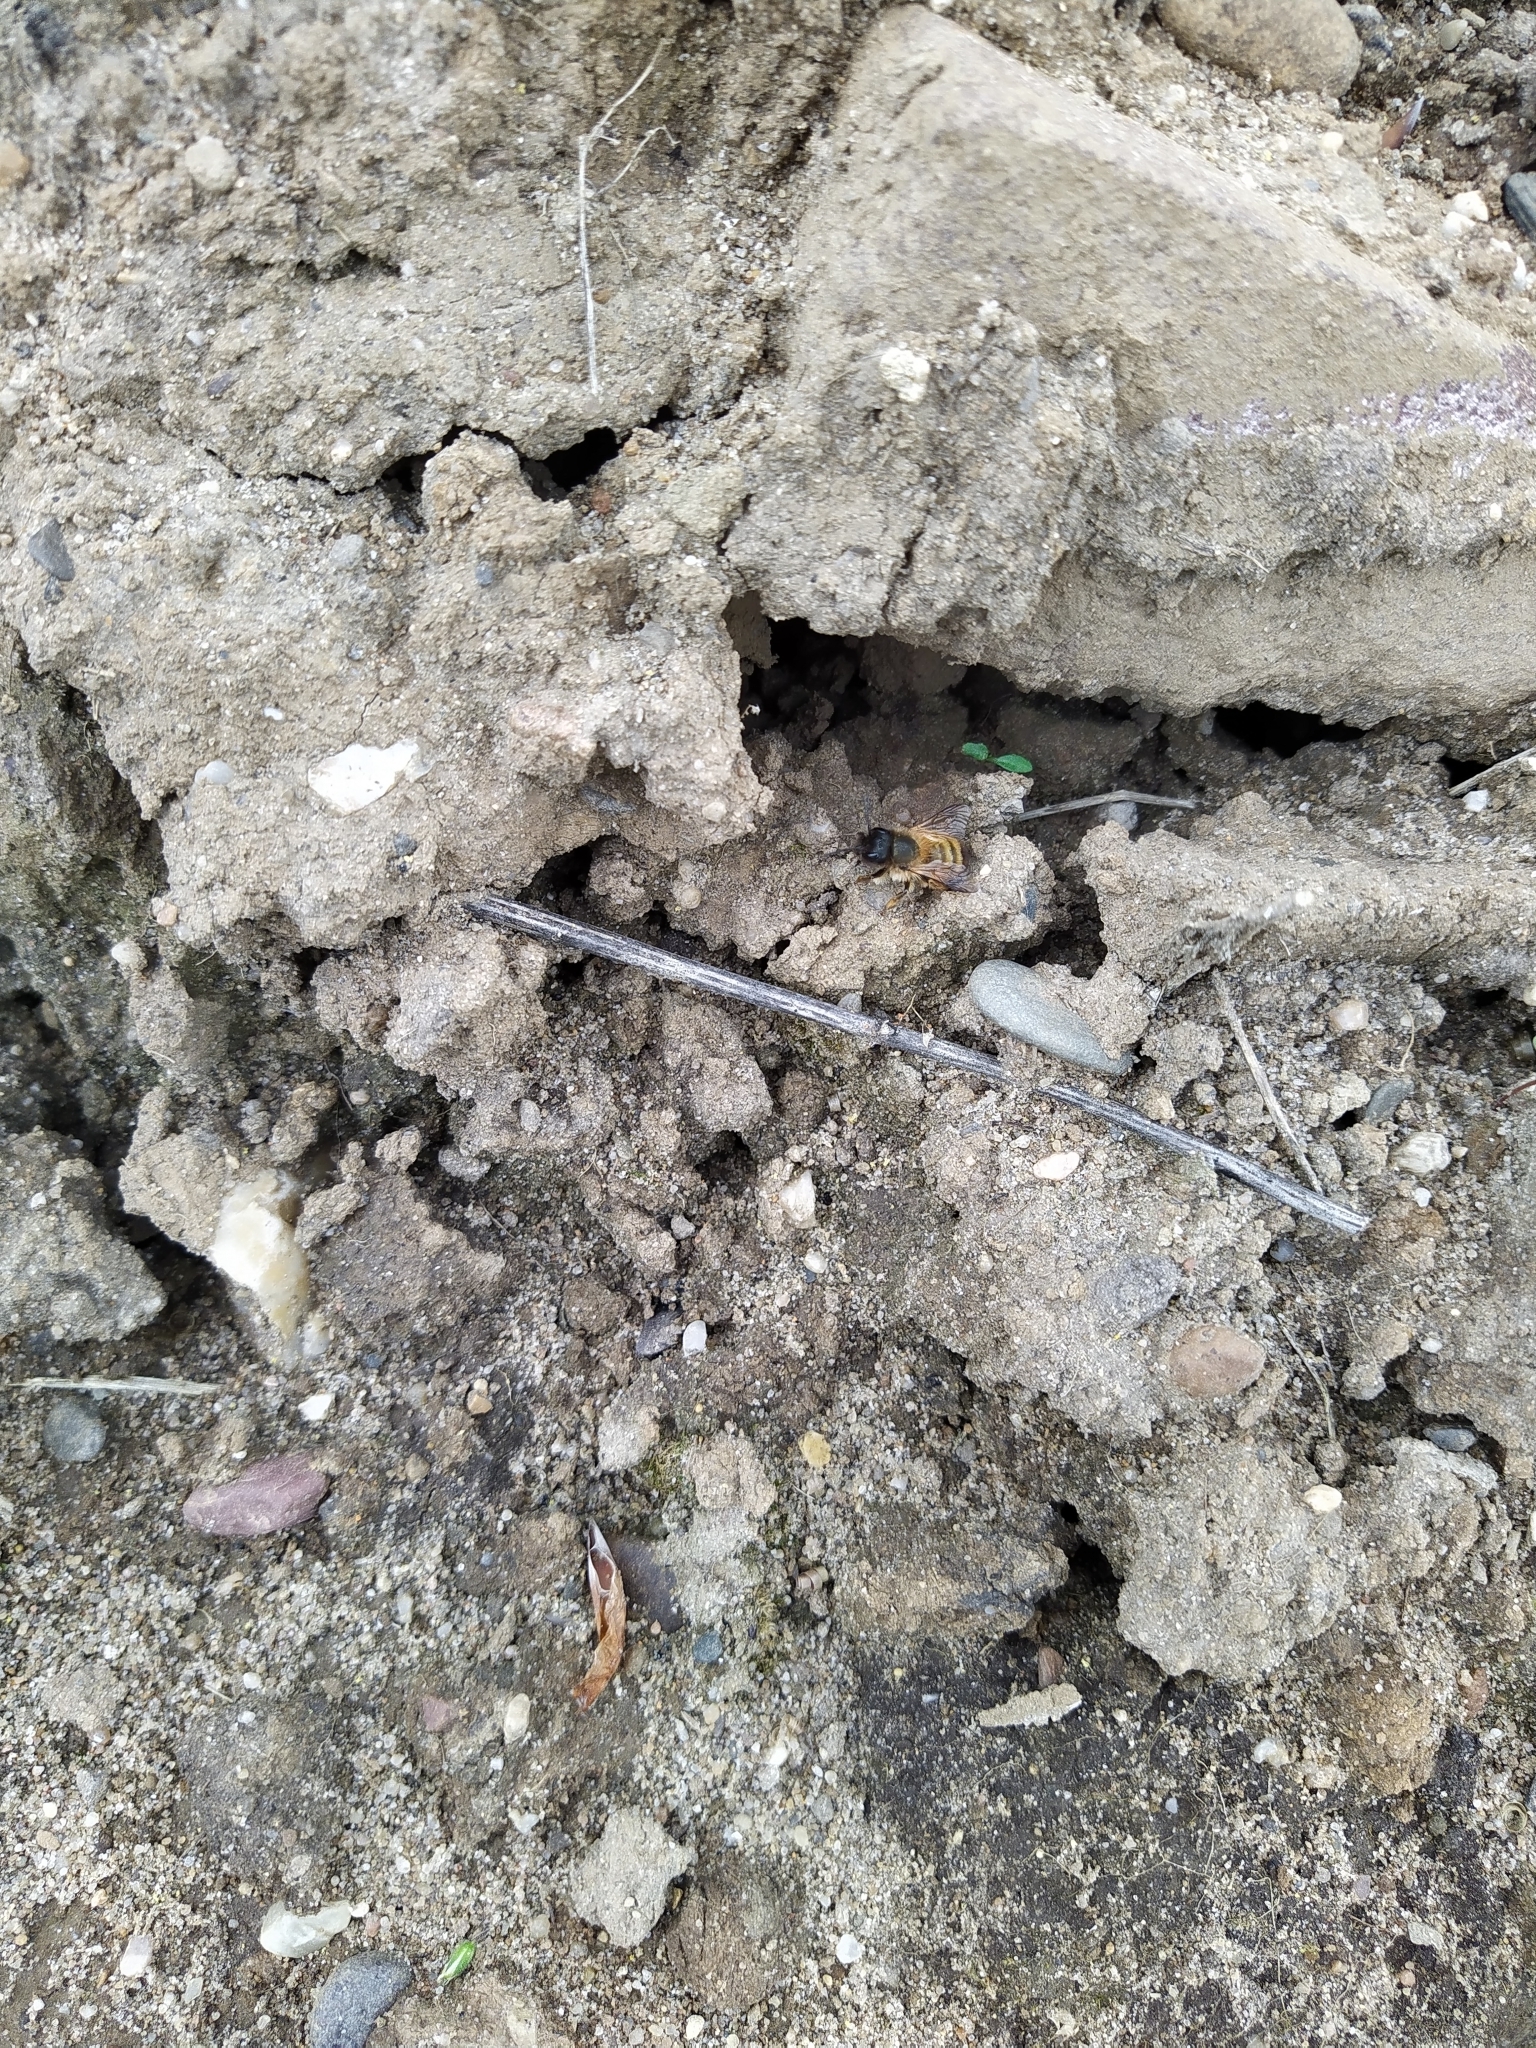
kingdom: Animalia
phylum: Arthropoda
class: Insecta
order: Hymenoptera
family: Megachilidae
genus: Osmia
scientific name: Osmia bicornis
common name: Red mason bee
